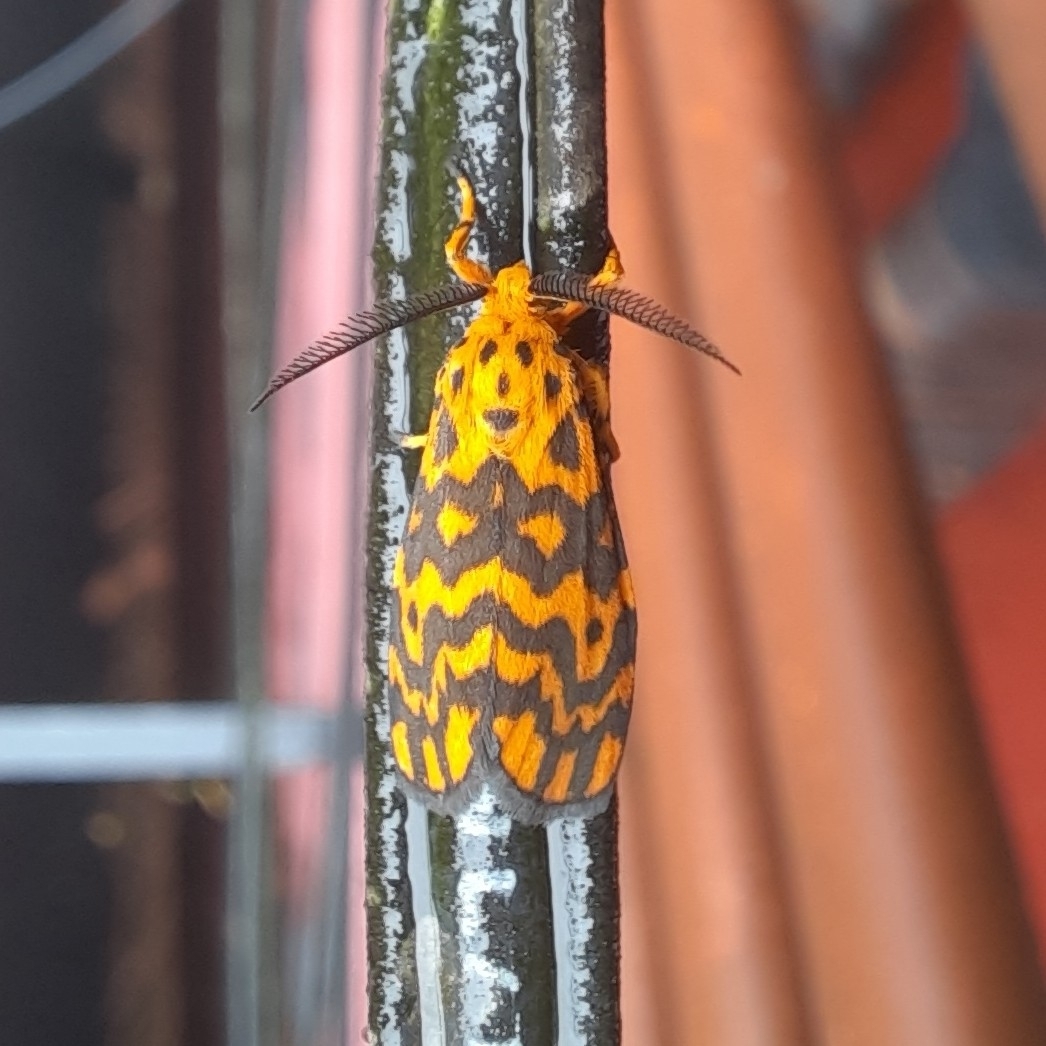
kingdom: Animalia
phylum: Arthropoda
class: Insecta
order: Lepidoptera
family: Erebidae
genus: Nepita
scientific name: Nepita conferta
